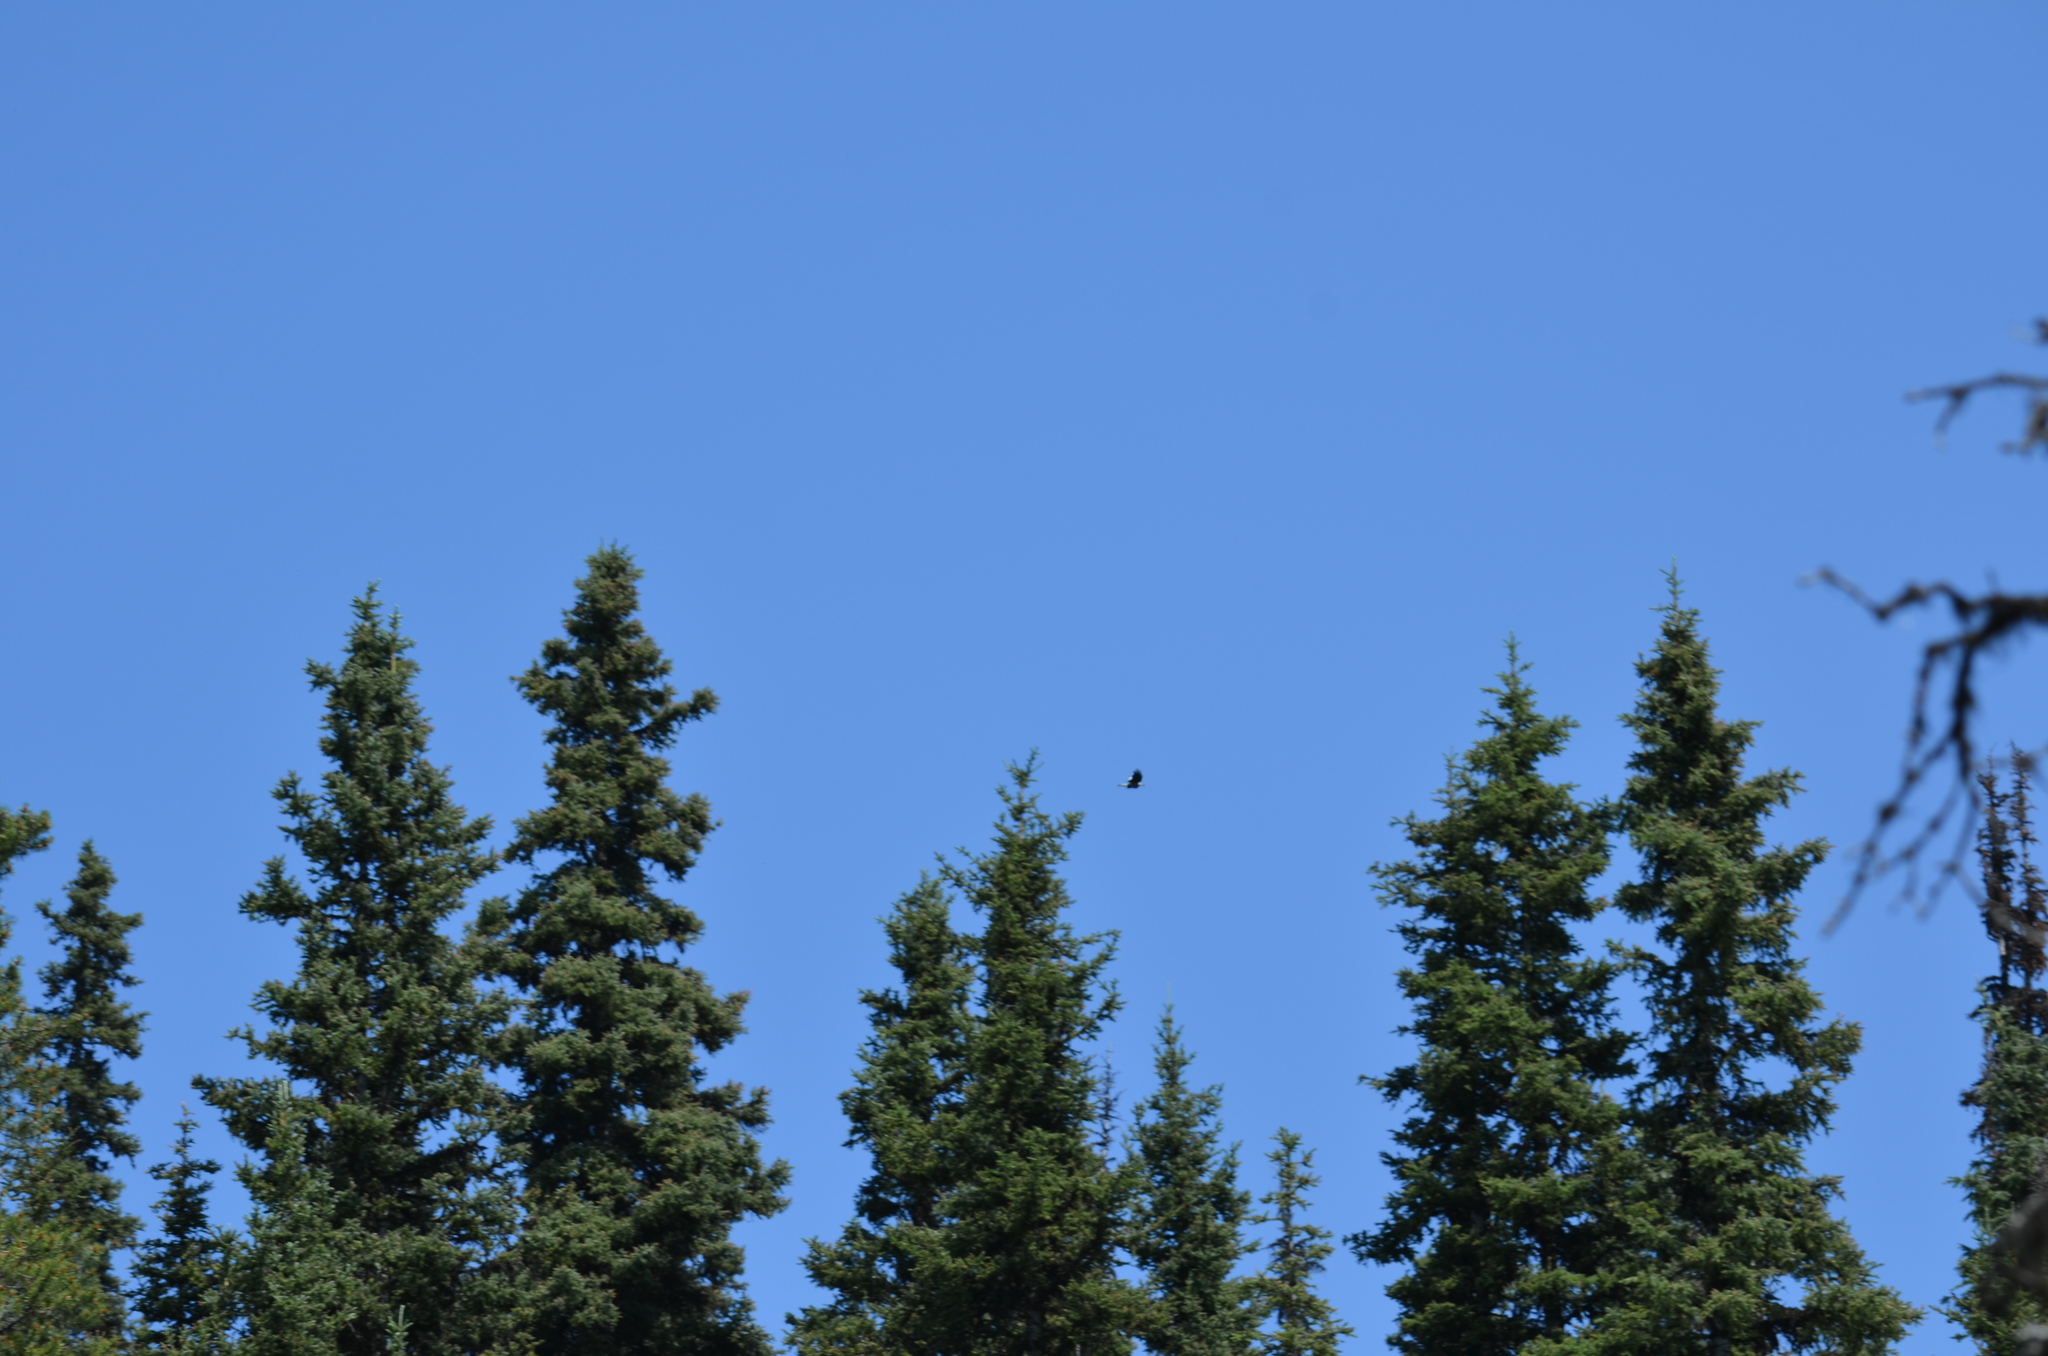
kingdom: Animalia
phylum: Chordata
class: Aves
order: Passeriformes
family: Corvidae
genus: Nucifraga
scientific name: Nucifraga columbiana
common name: Clark's nutcracker
